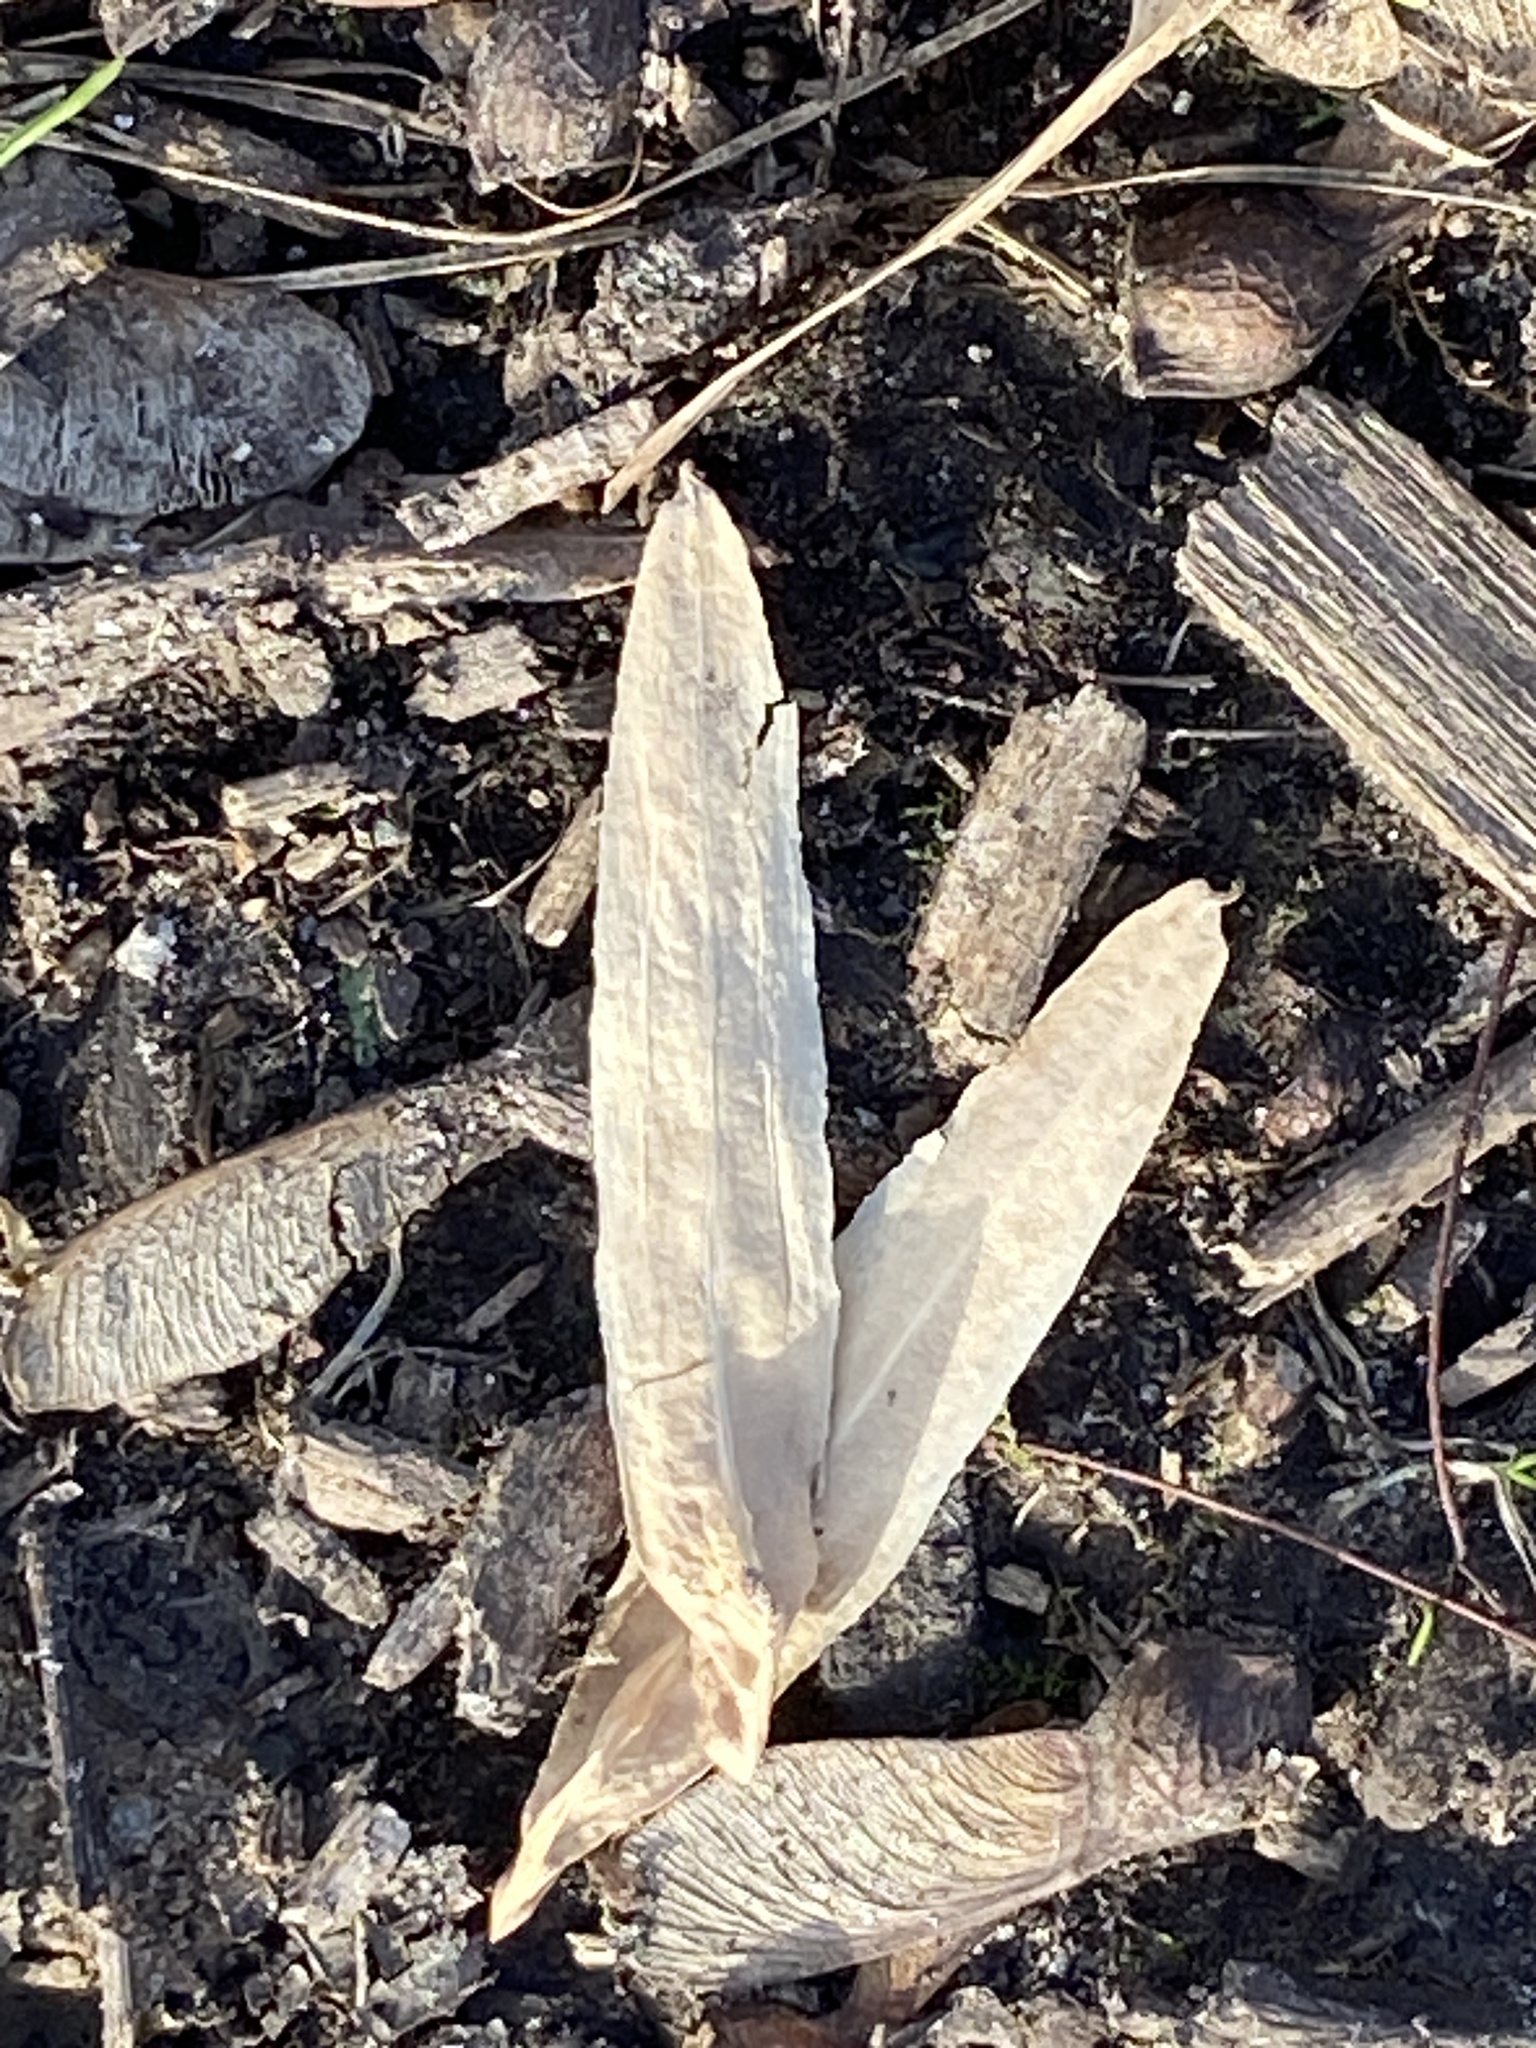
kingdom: Plantae
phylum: Tracheophyta
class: Magnoliopsida
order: Magnoliales
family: Magnoliaceae
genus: Liriodendron
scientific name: Liriodendron tulipifera
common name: Tulip tree
